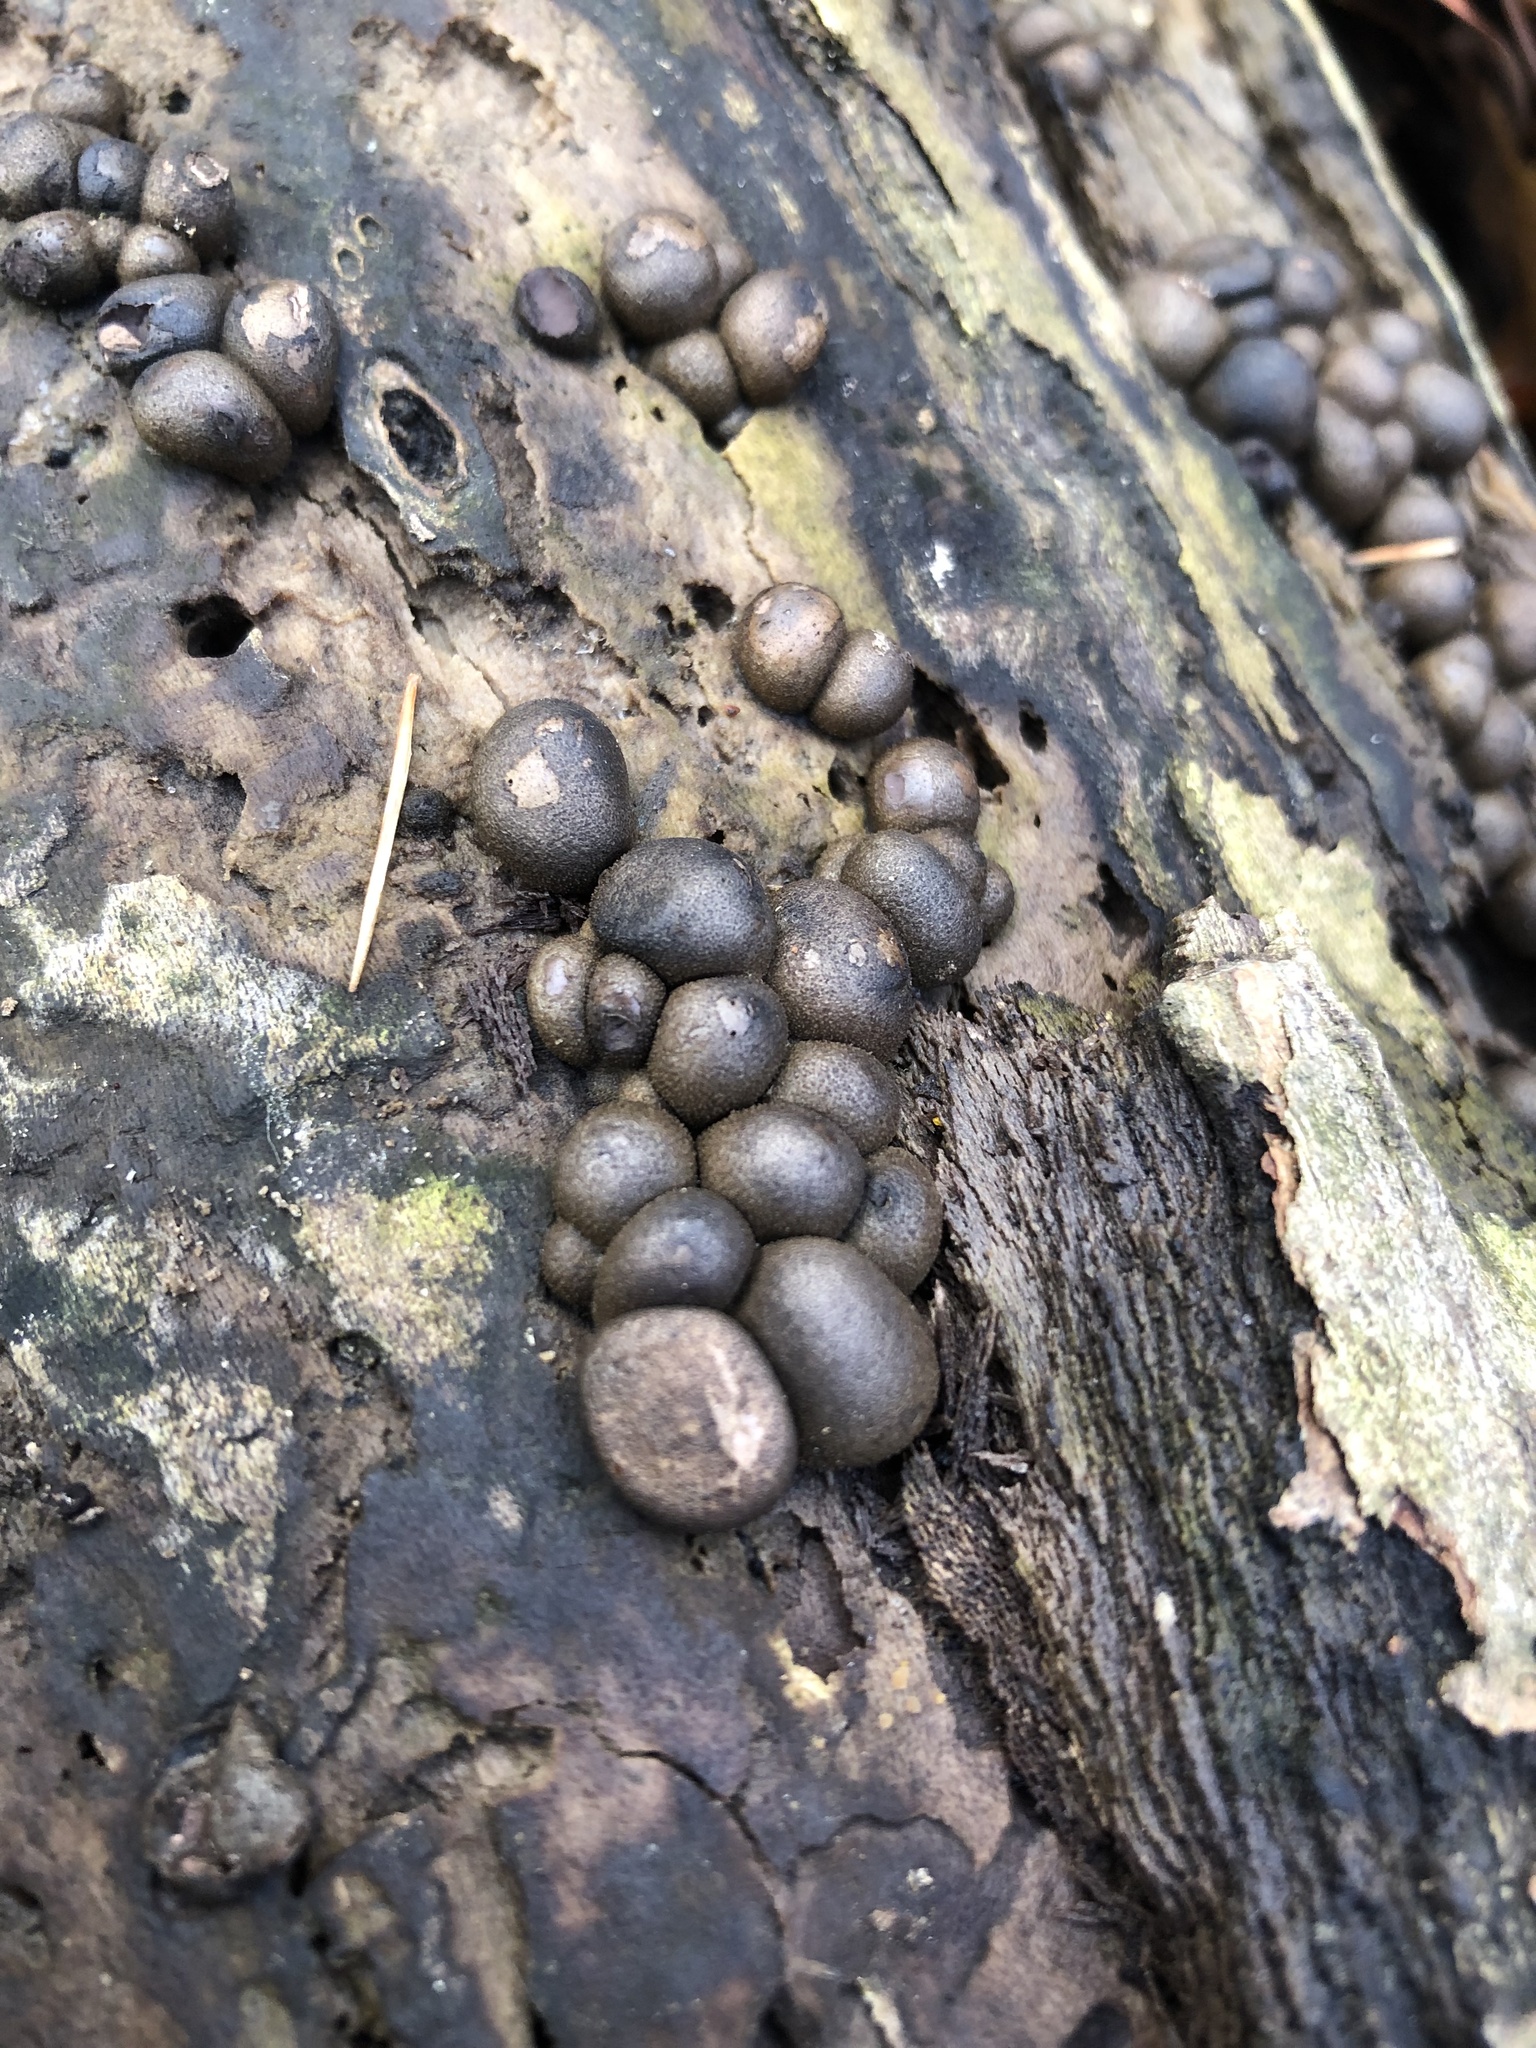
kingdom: Protozoa
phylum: Mycetozoa
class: Myxomycetes
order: Cribrariales
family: Tubiferaceae
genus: Lycogala
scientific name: Lycogala epidendrum
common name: Wolf's milk
